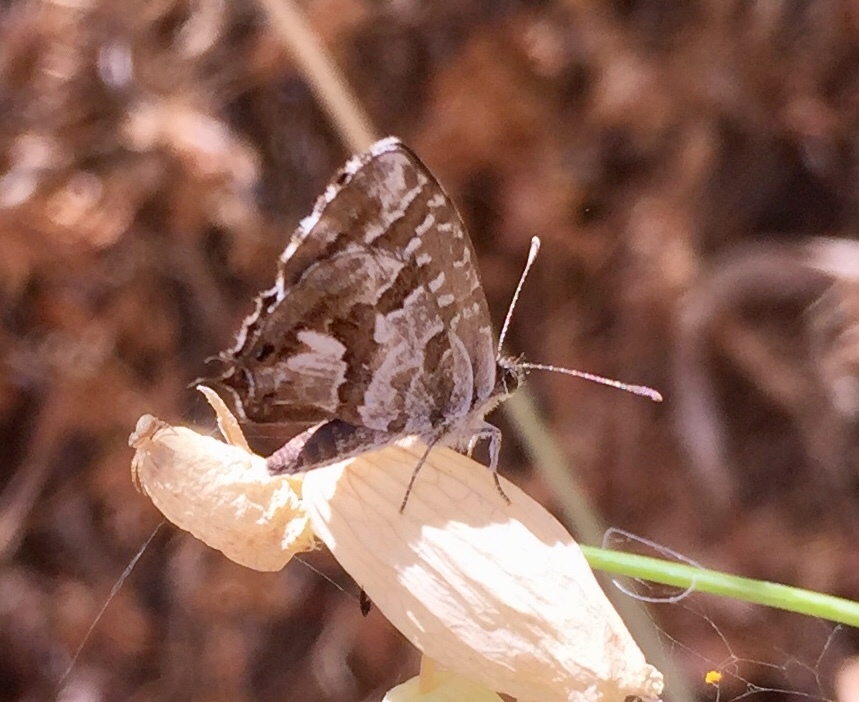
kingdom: Animalia
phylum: Arthropoda
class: Insecta
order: Lepidoptera
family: Lycaenidae
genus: Cacyreus
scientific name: Cacyreus marshalli
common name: Geranium bronze
